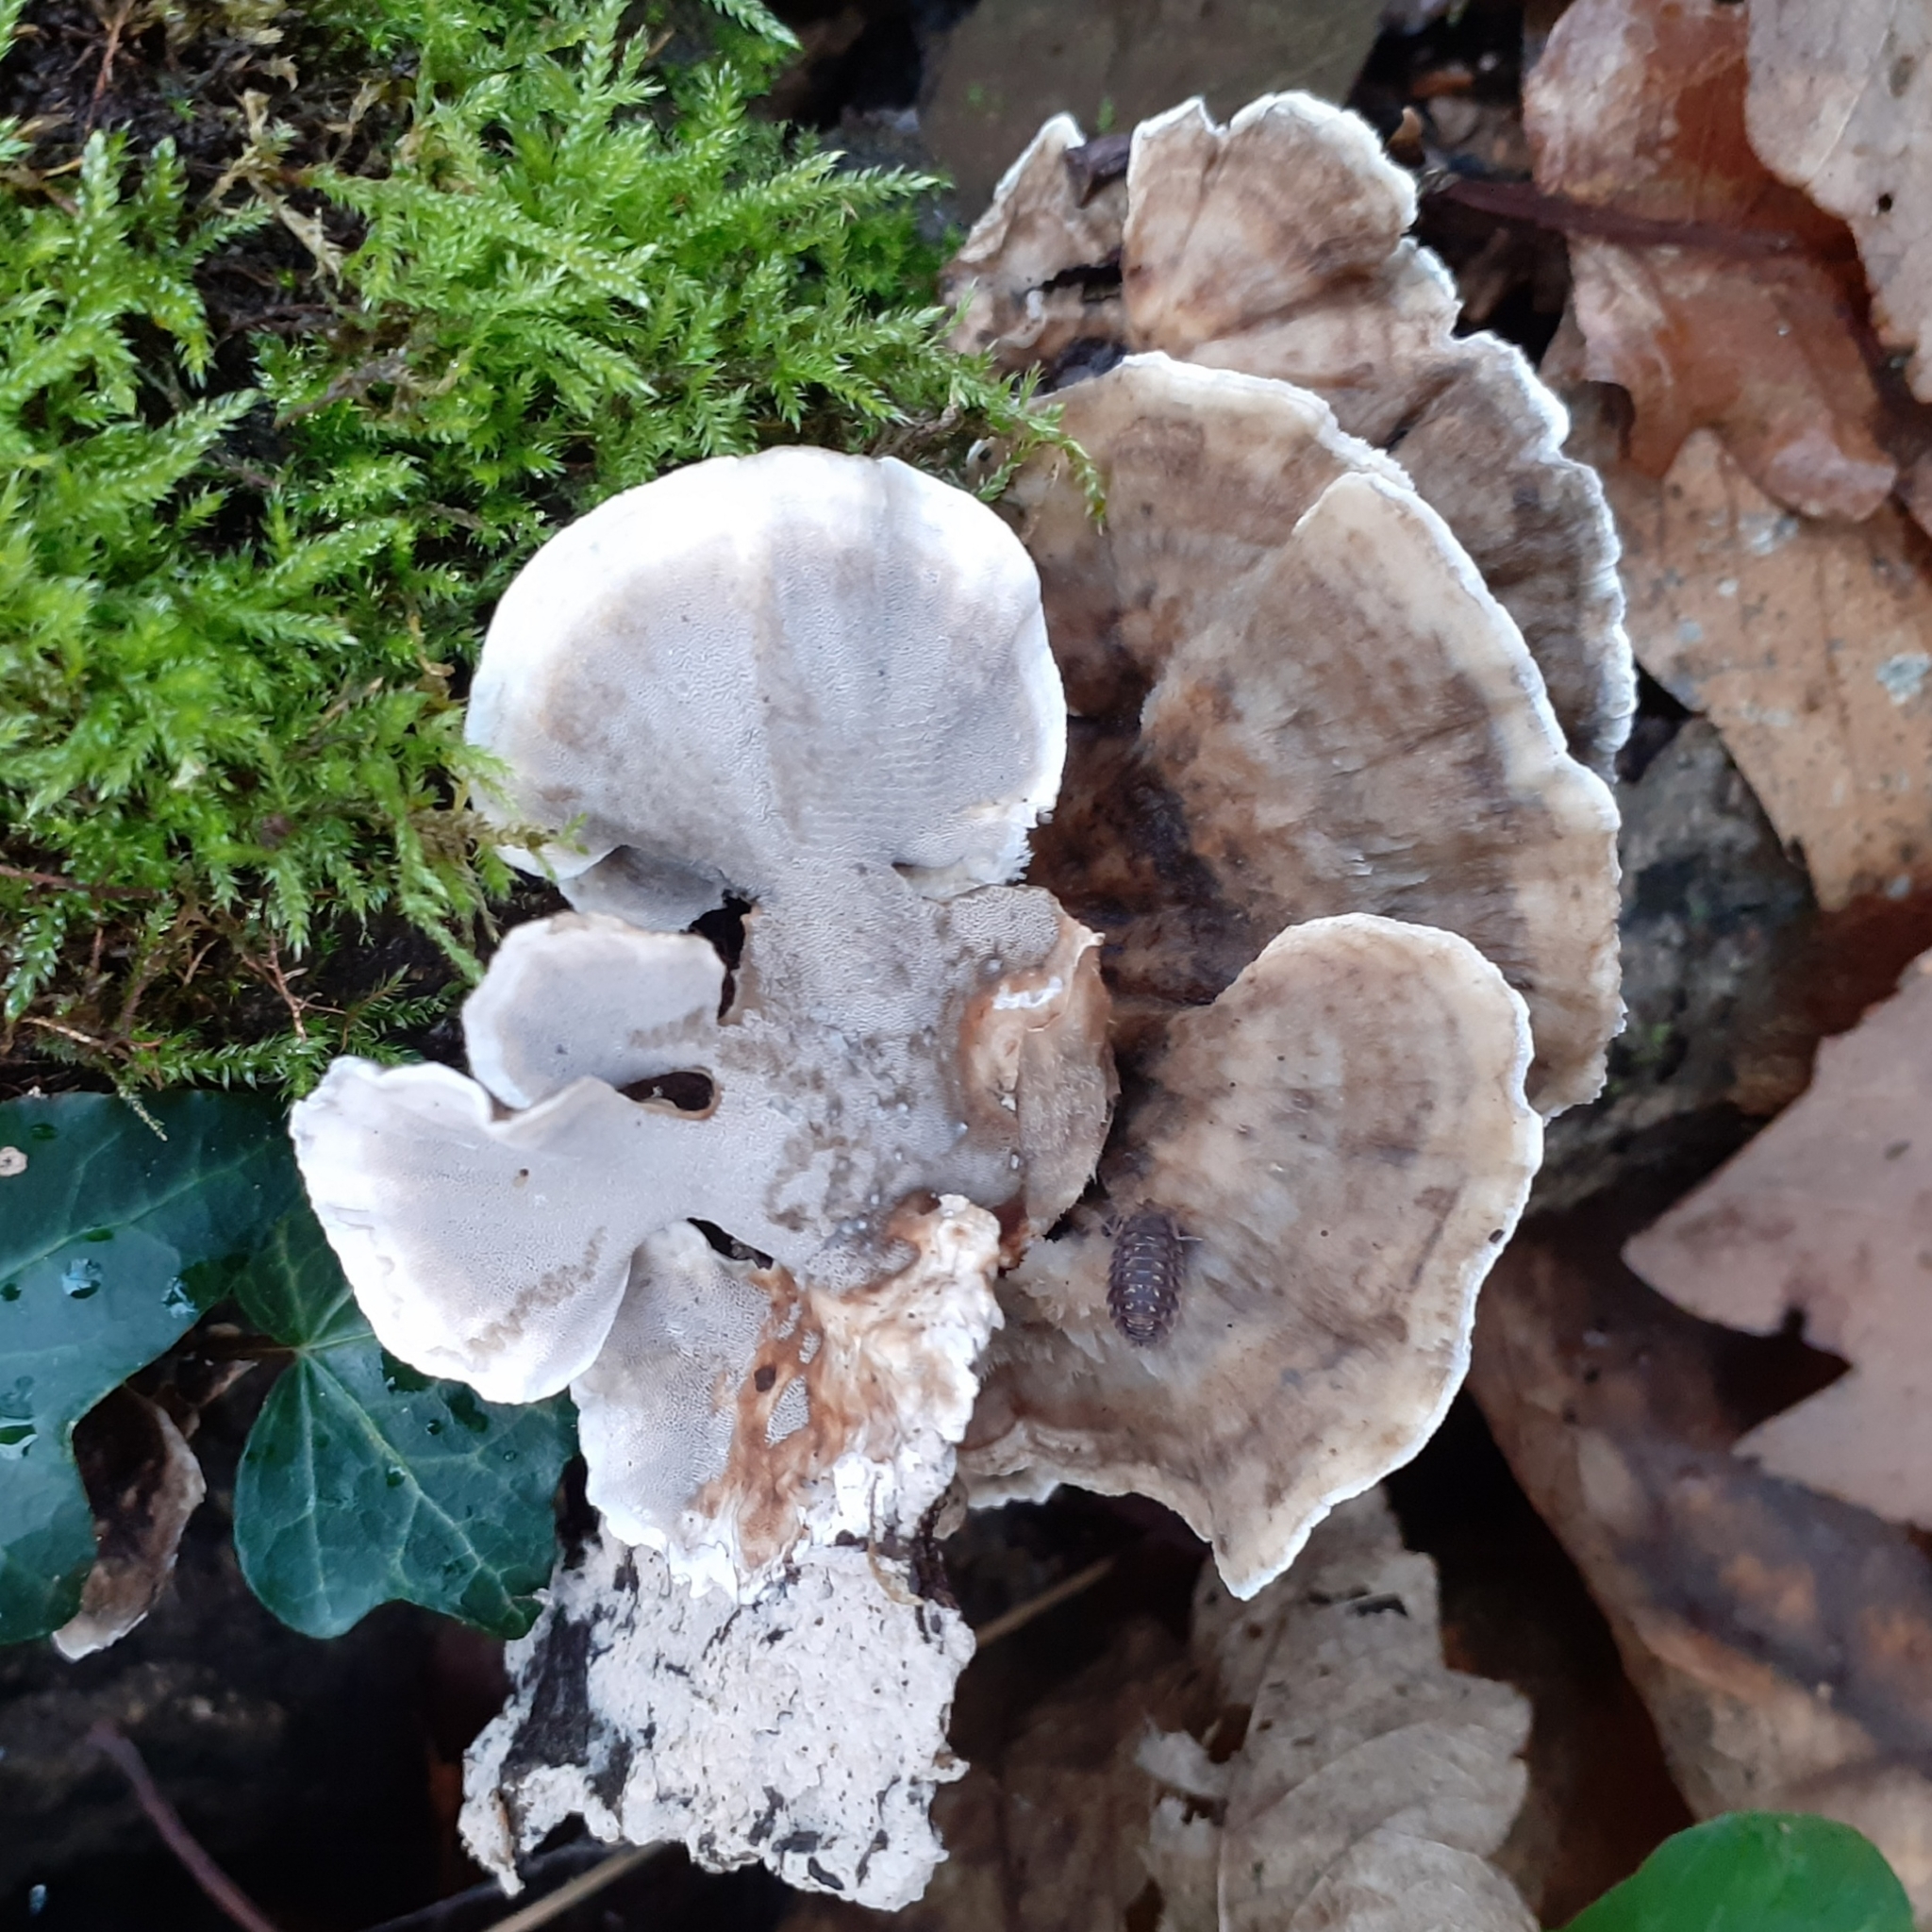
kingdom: Fungi
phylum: Basidiomycota
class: Agaricomycetes
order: Polyporales
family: Phanerochaetaceae
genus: Bjerkandera
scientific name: Bjerkandera adusta
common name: Smoky bracket
